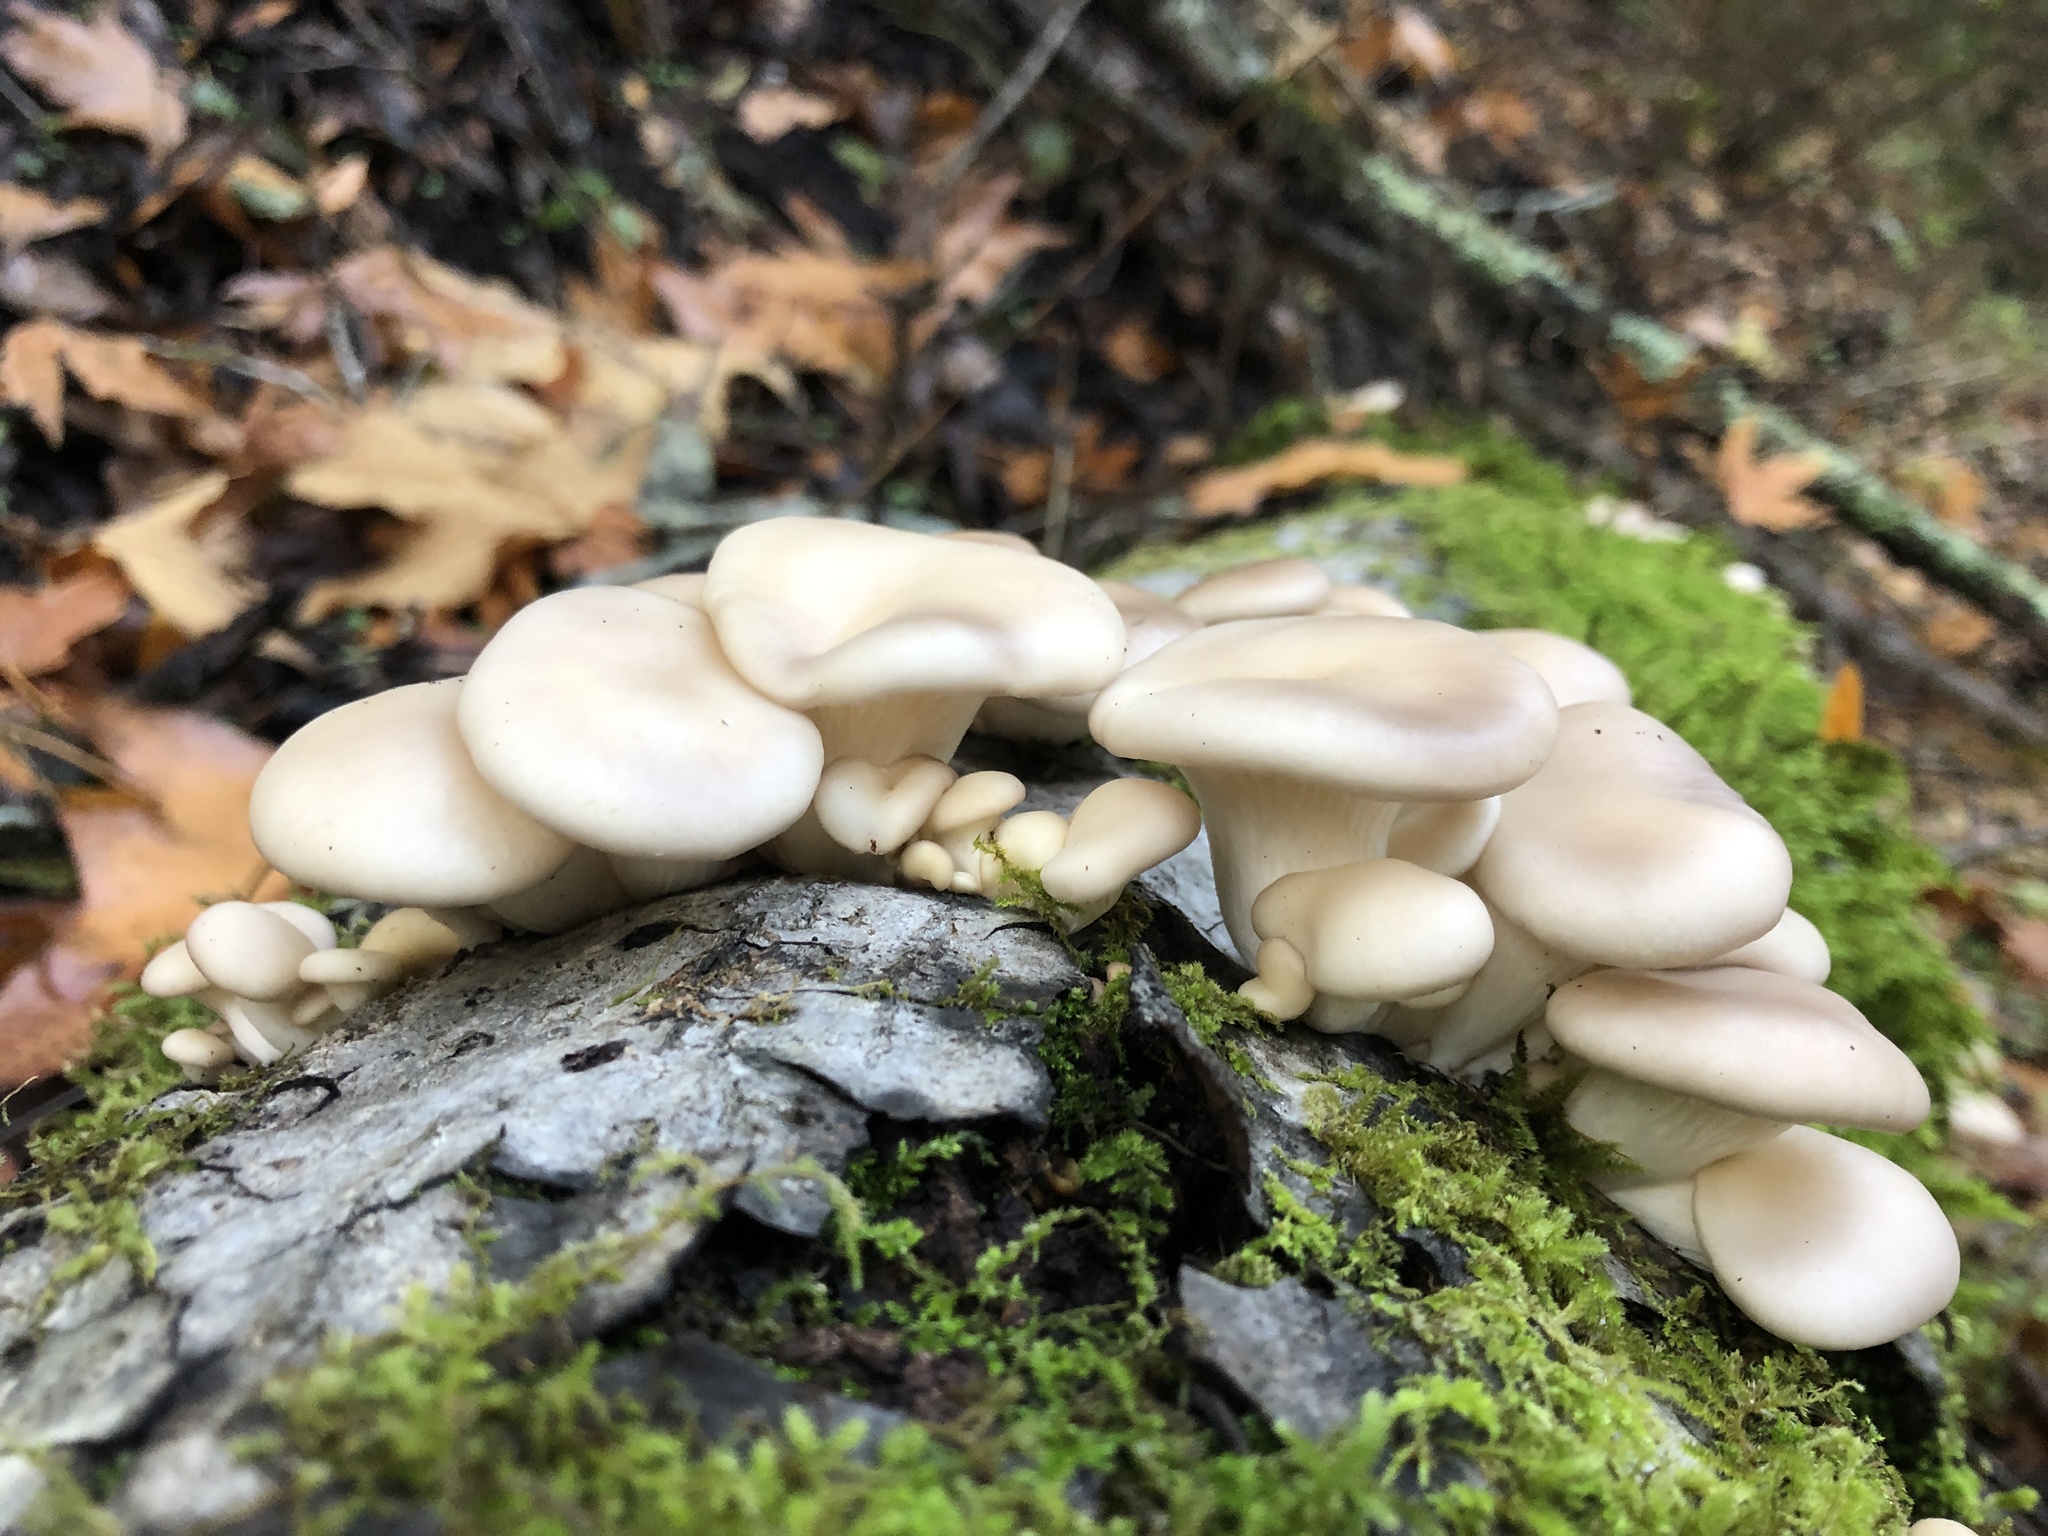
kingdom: Fungi
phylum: Basidiomycota
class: Agaricomycetes
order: Agaricales
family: Pleurotaceae
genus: Pleurotus
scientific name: Pleurotus ostreatus
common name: Oyster mushroom
